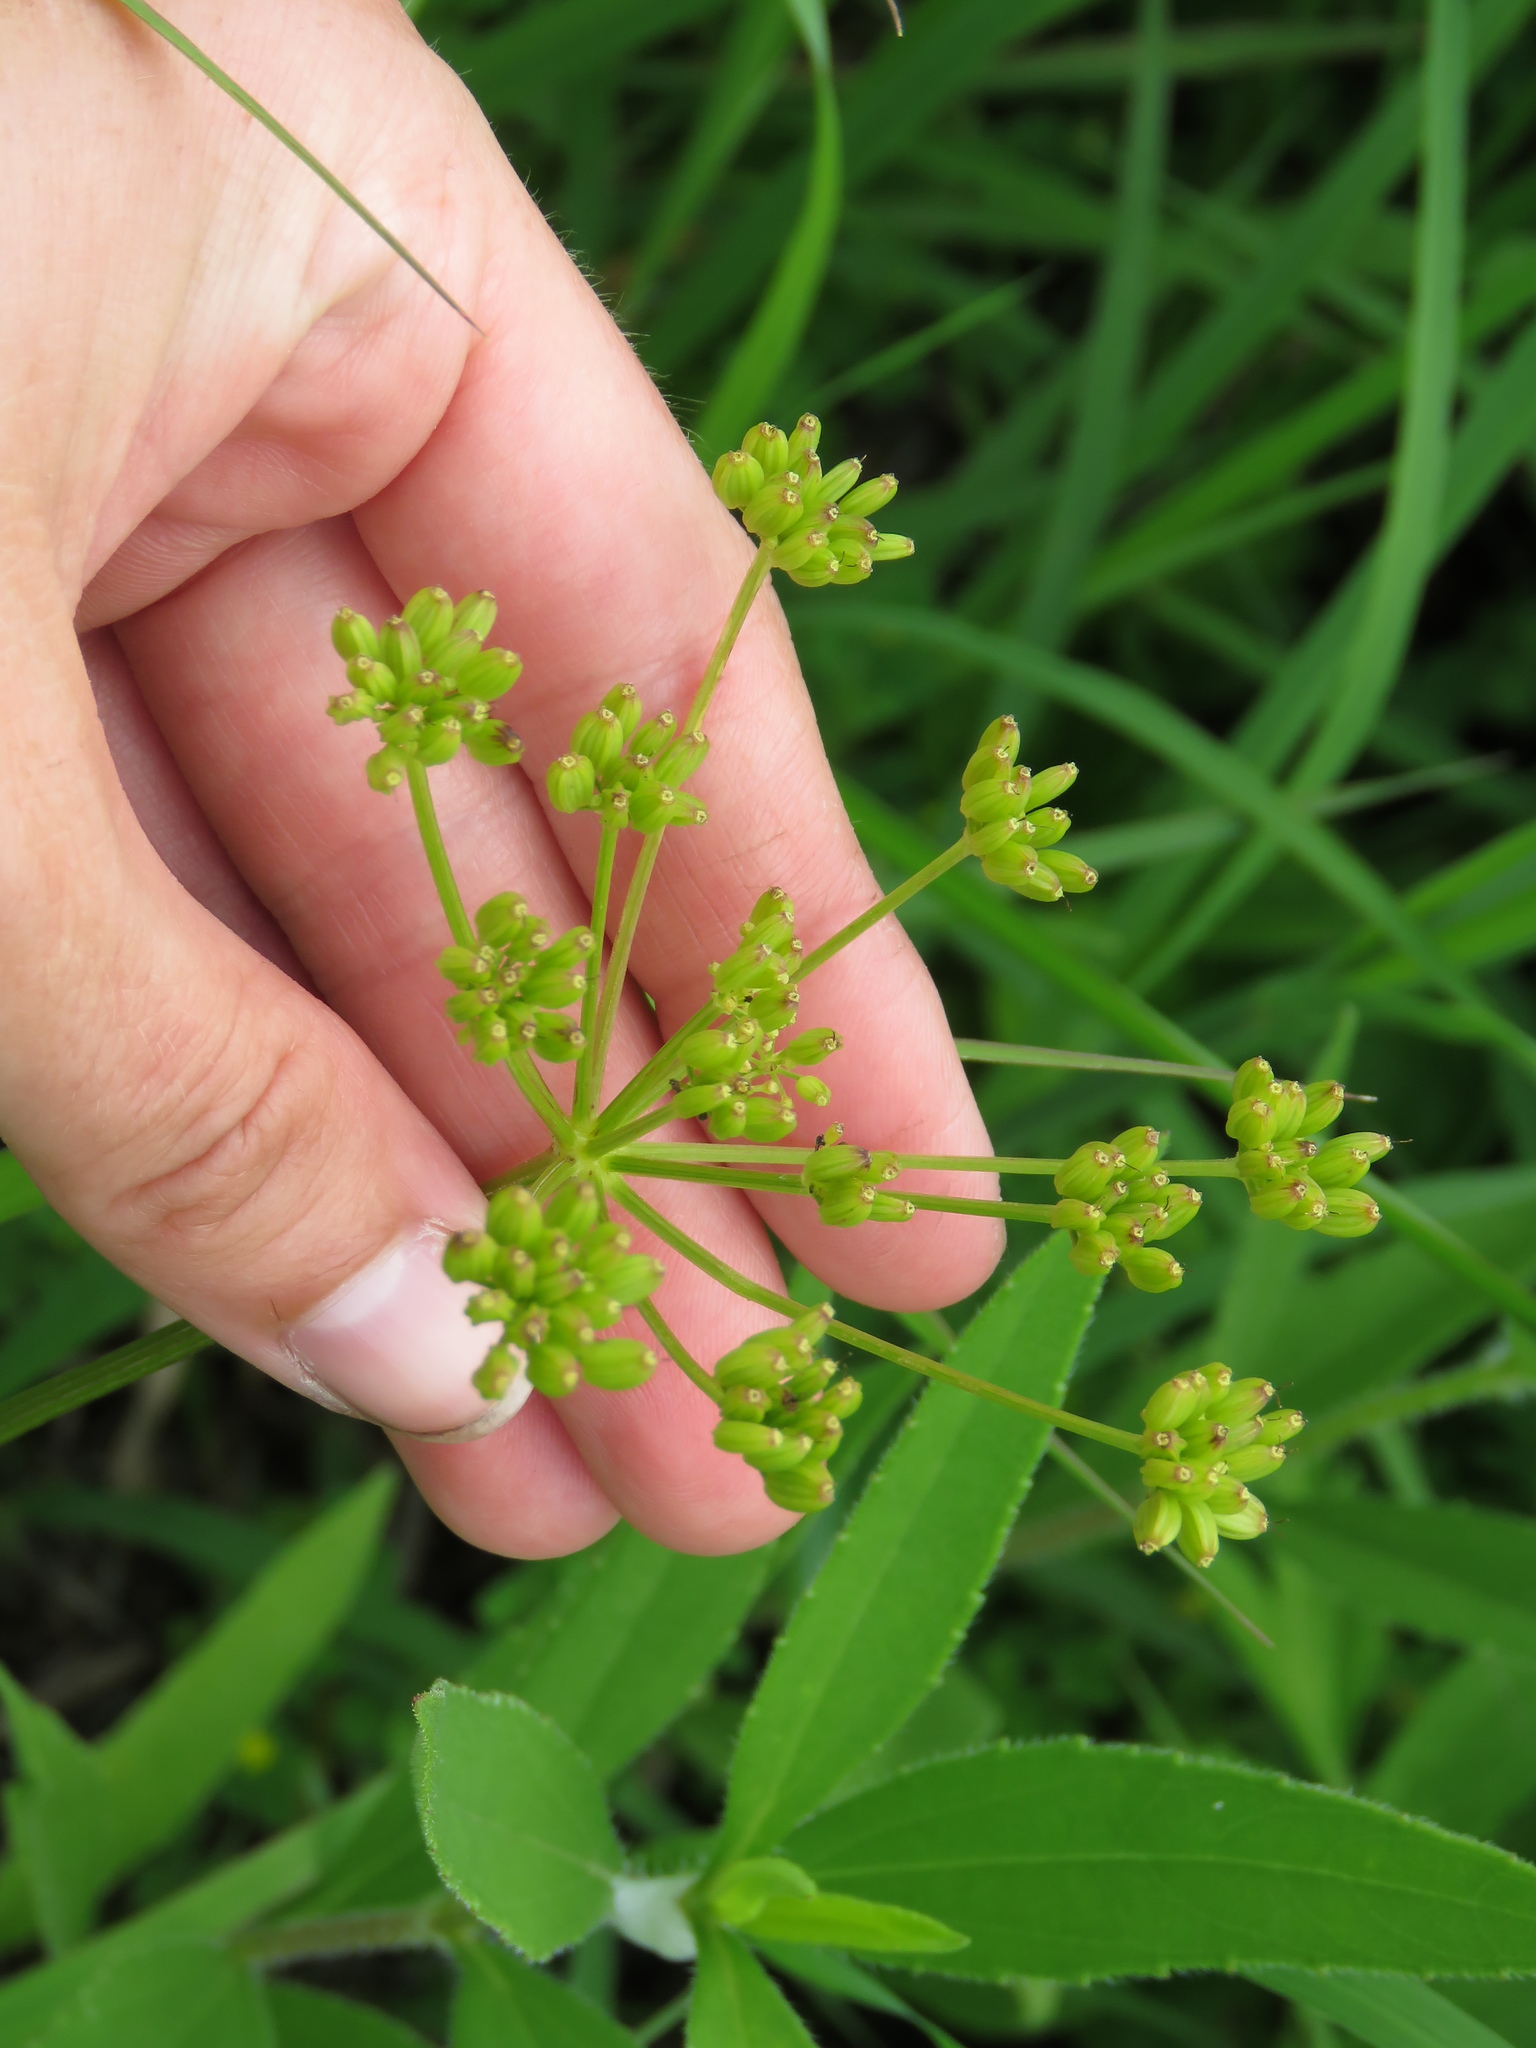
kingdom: Plantae
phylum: Tracheophyta
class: Magnoliopsida
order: Apiales
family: Apiaceae
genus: Zizia
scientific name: Zizia aurea
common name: Golden alexanders
